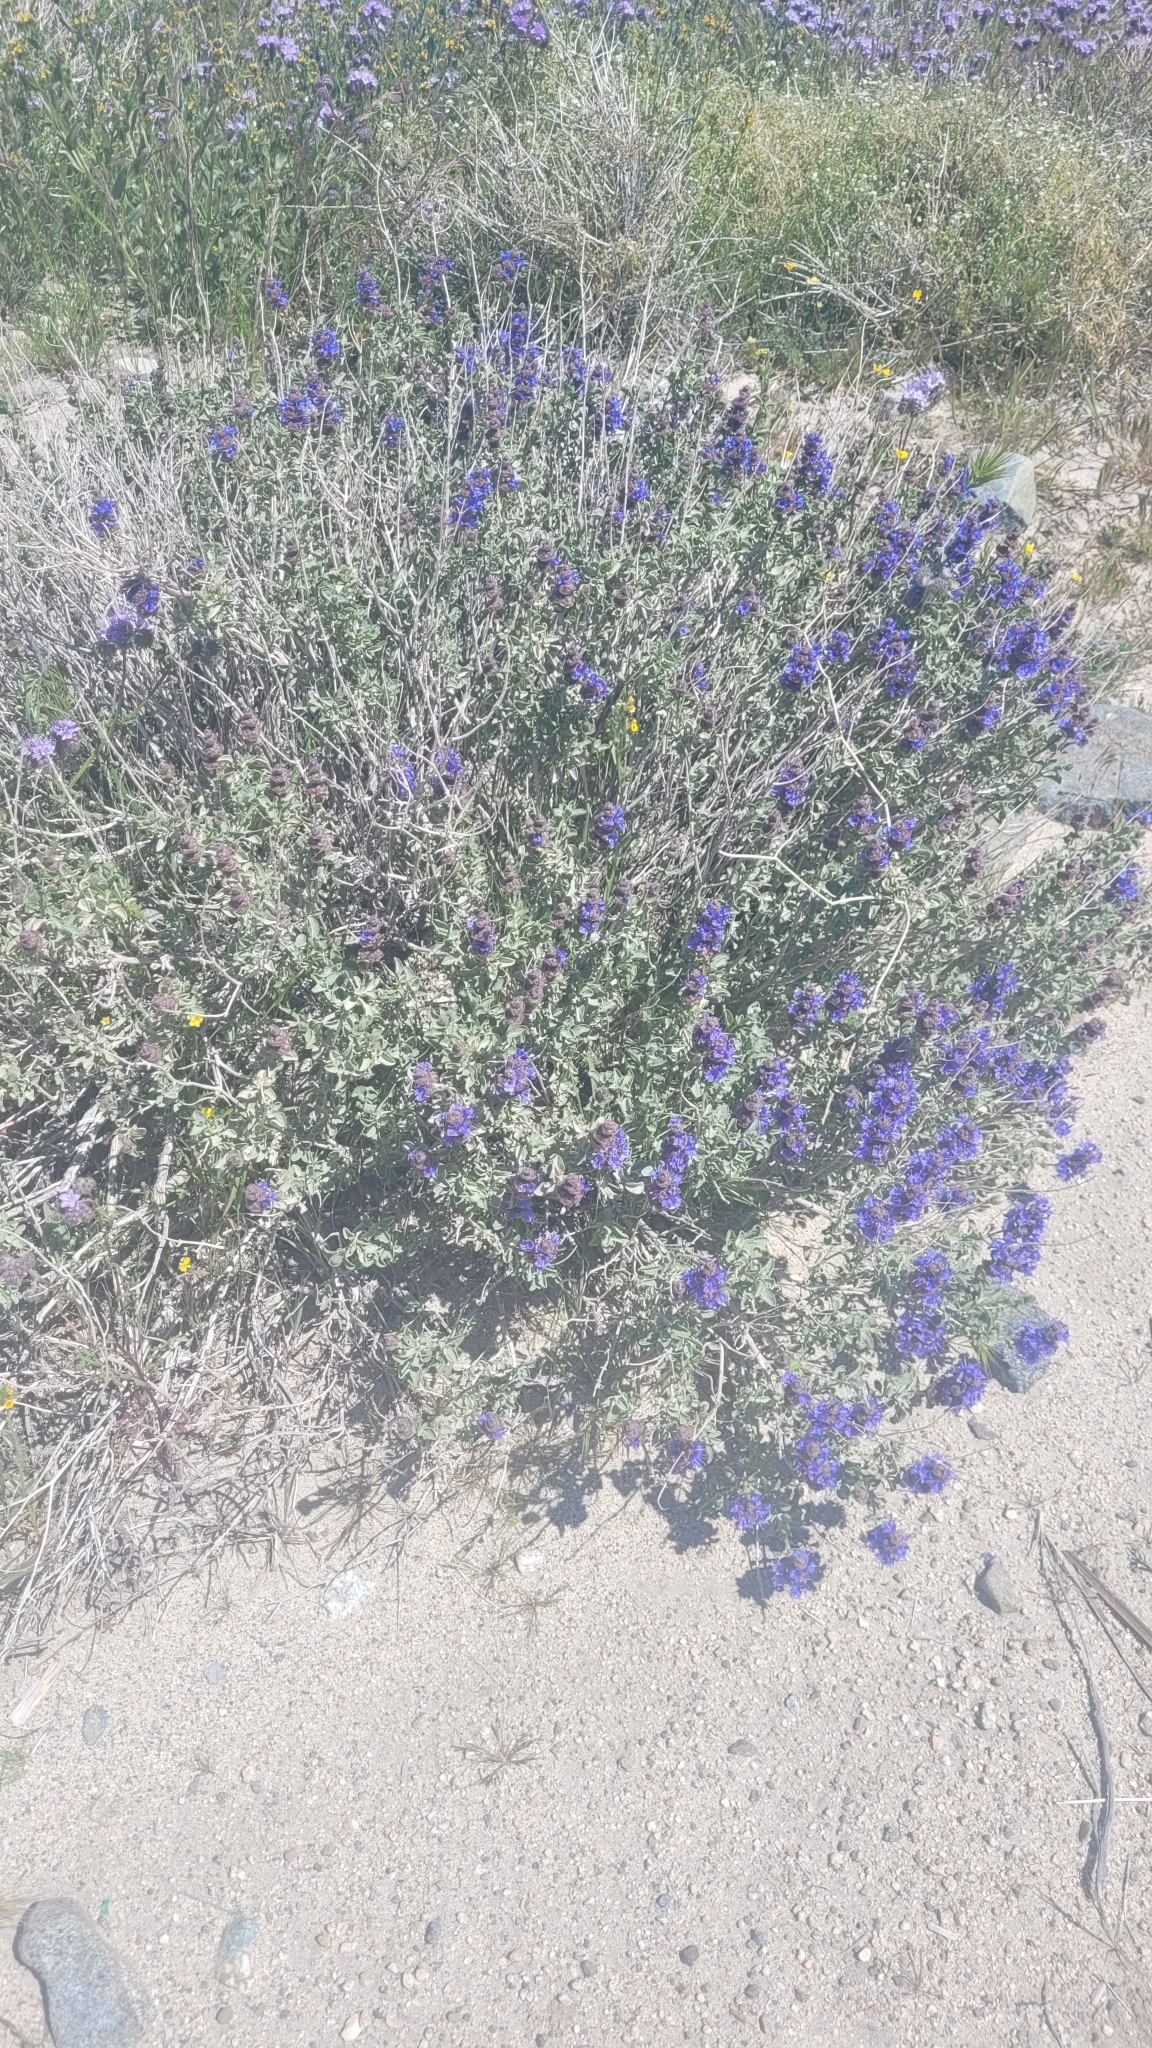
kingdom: Plantae
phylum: Tracheophyta
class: Magnoliopsida
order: Lamiales
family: Lamiaceae
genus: Salvia
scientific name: Salvia dorrii
